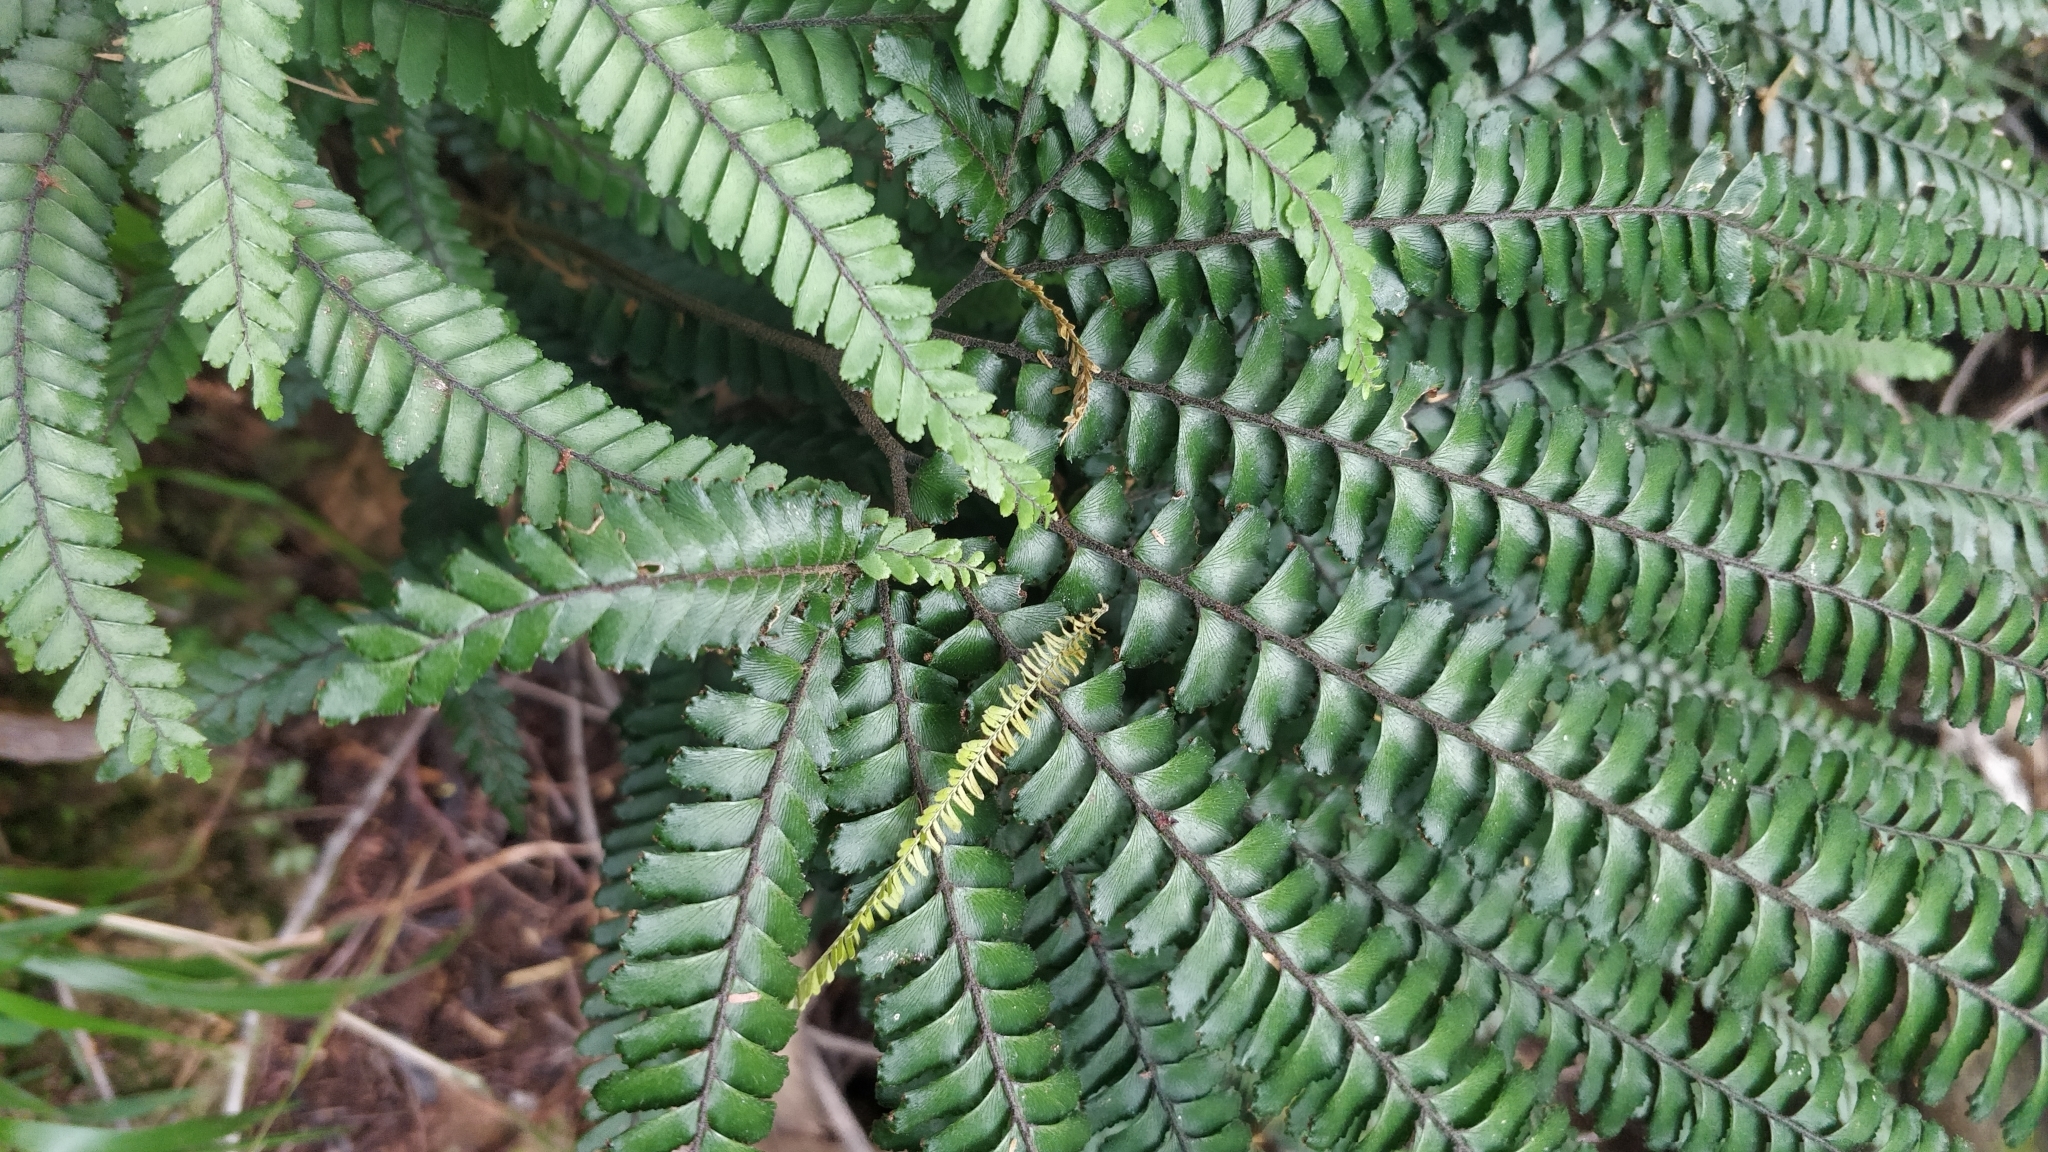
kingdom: Plantae
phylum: Tracheophyta
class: Polypodiopsida
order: Polypodiales
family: Pteridaceae
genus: Adiantum
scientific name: Adiantum hispidulum
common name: Rough maidenhair
